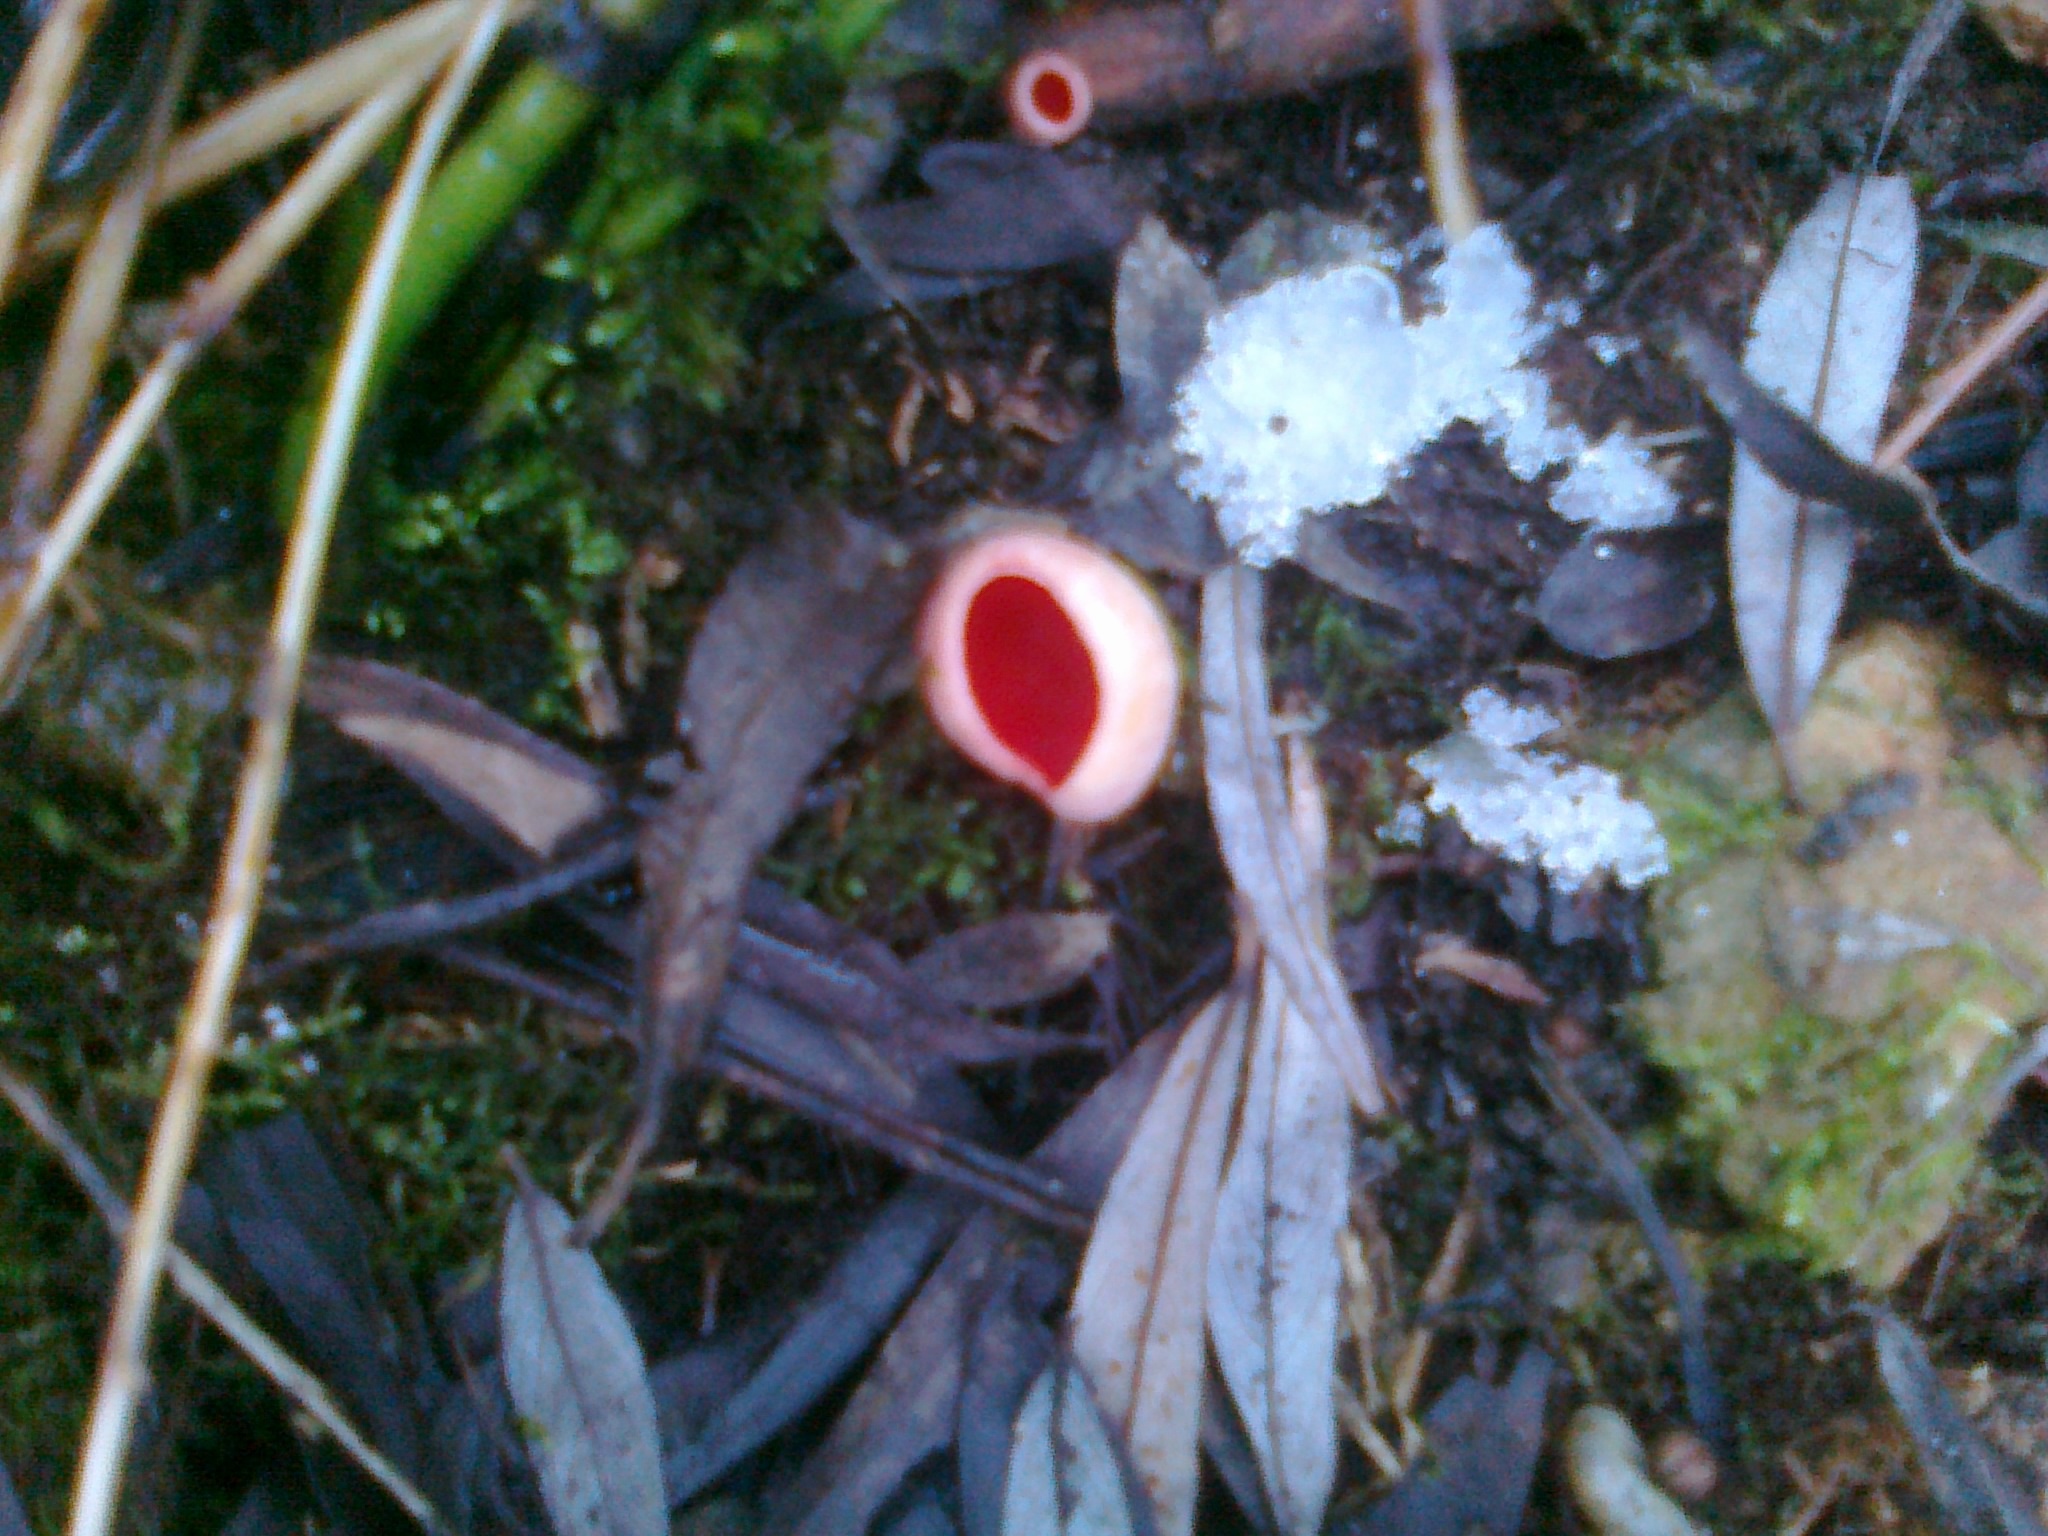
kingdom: Fungi
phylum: Ascomycota
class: Pezizomycetes
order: Pezizales
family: Sarcoscyphaceae
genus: Sarcoscypha
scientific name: Sarcoscypha
